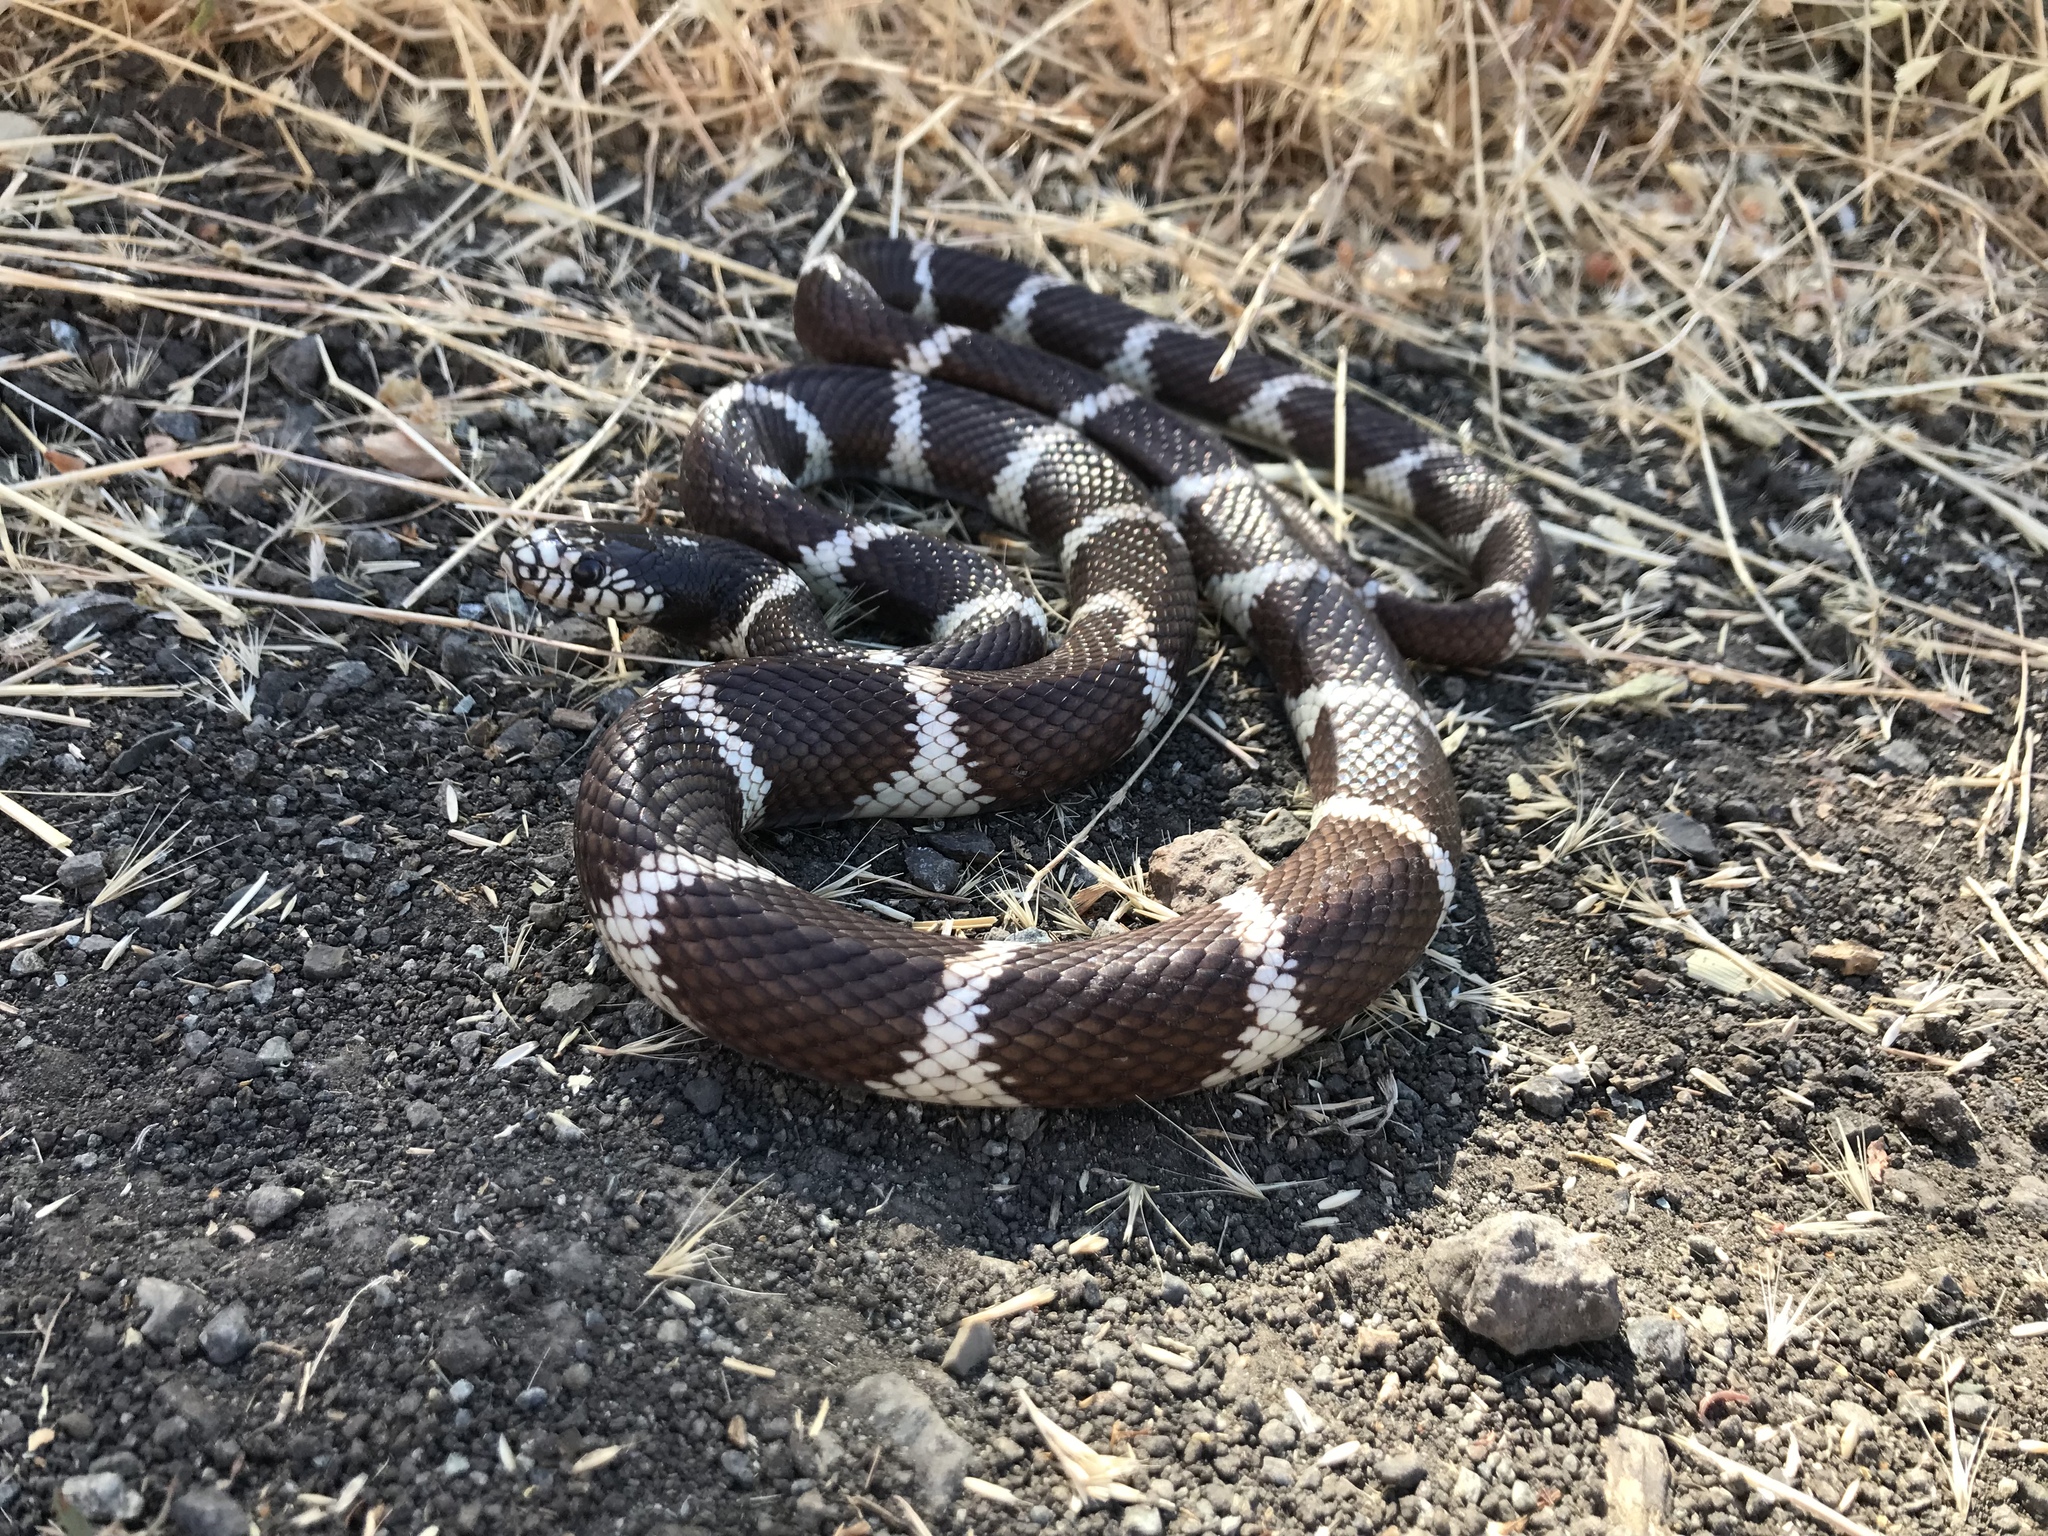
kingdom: Animalia
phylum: Chordata
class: Squamata
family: Colubridae
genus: Lampropeltis
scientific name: Lampropeltis californiae
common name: California kingsnake
